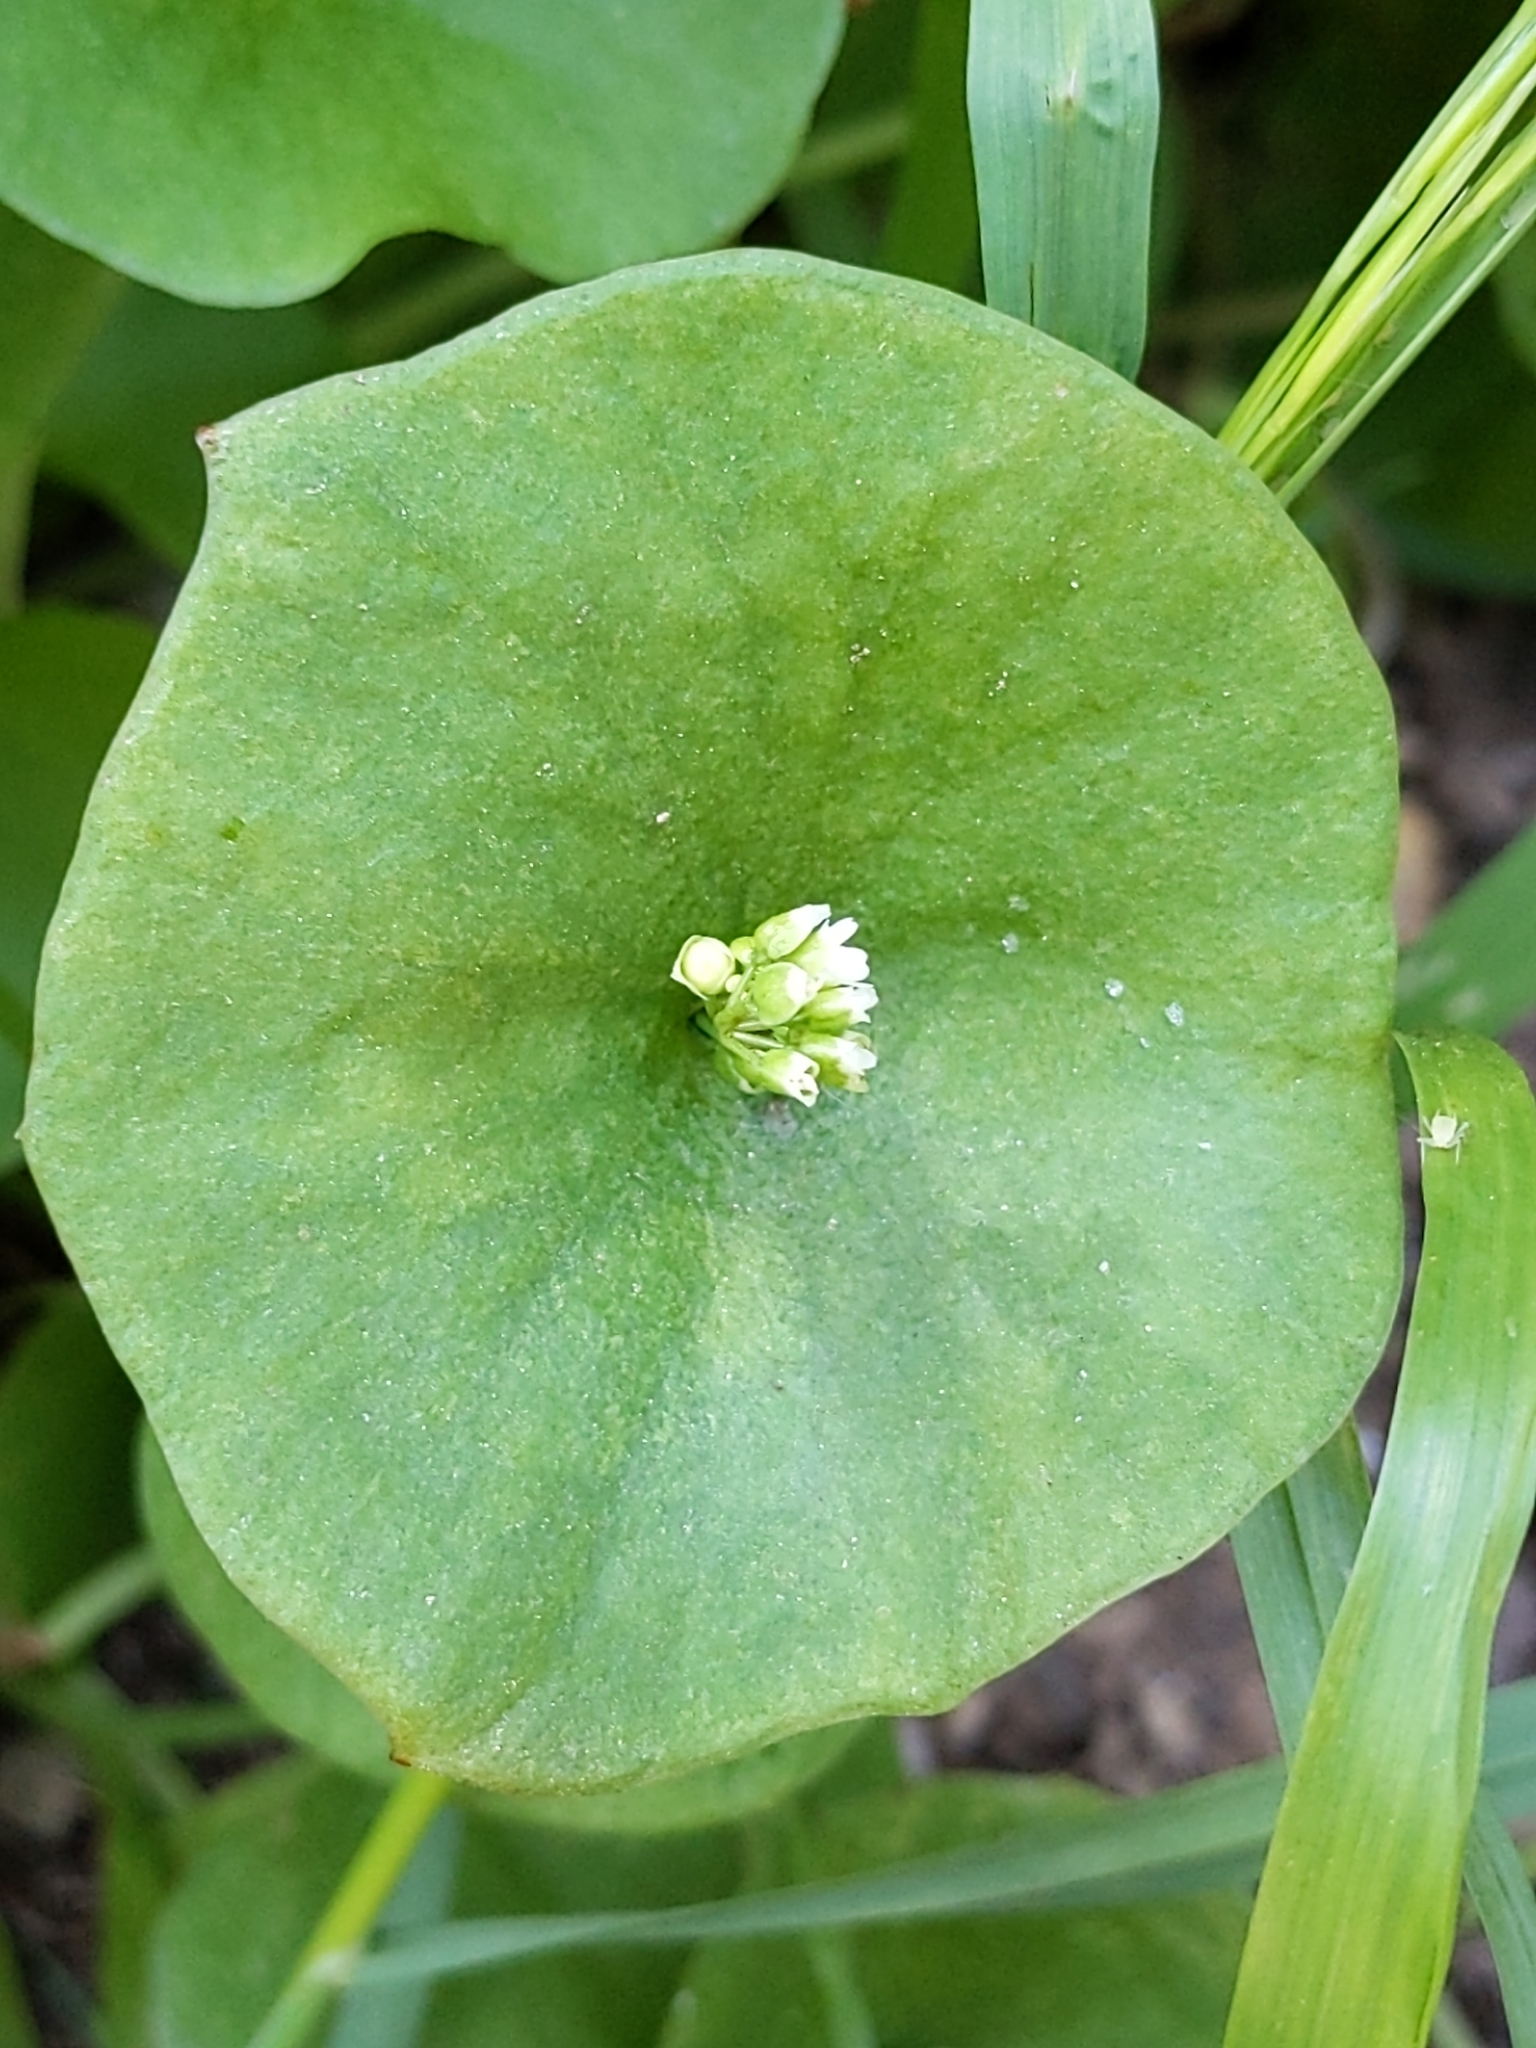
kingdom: Plantae
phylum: Tracheophyta
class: Magnoliopsida
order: Caryophyllales
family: Montiaceae
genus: Claytonia
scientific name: Claytonia perfoliata
